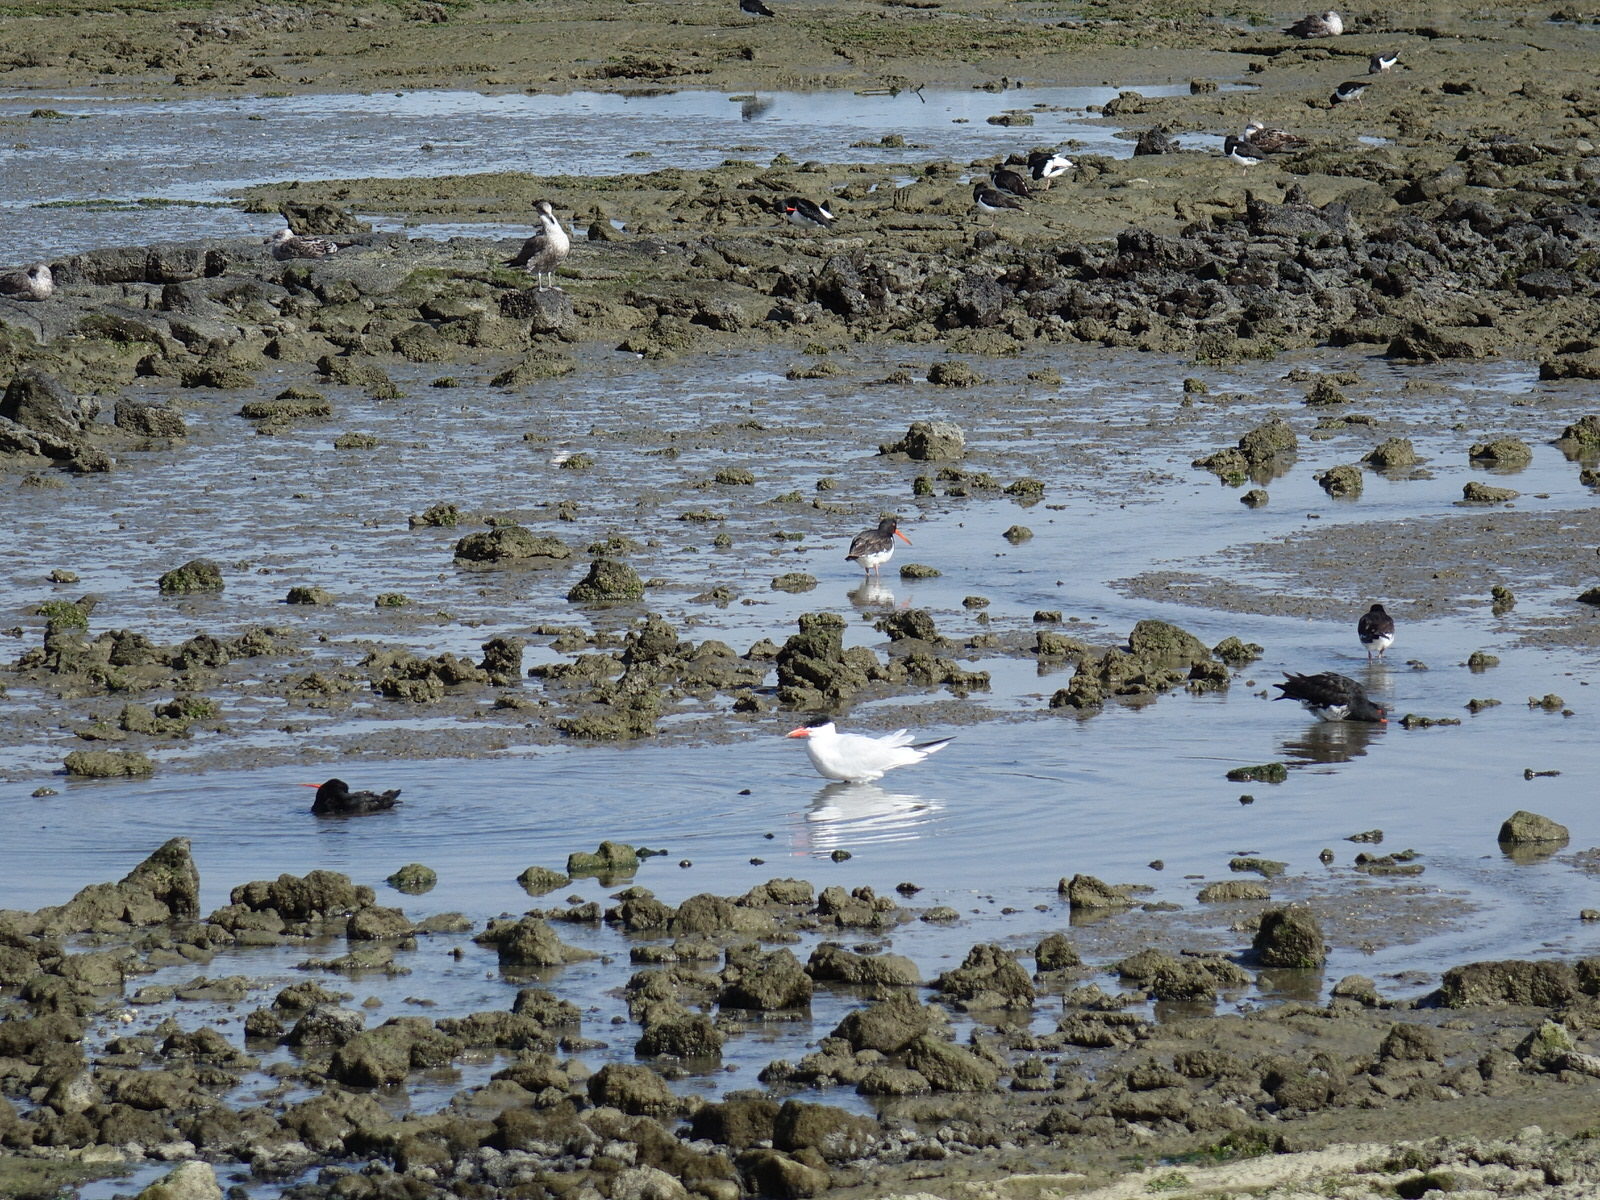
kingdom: Animalia
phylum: Chordata
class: Aves
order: Charadriiformes
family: Laridae
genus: Hydroprogne
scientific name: Hydroprogne caspia
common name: Caspian tern
